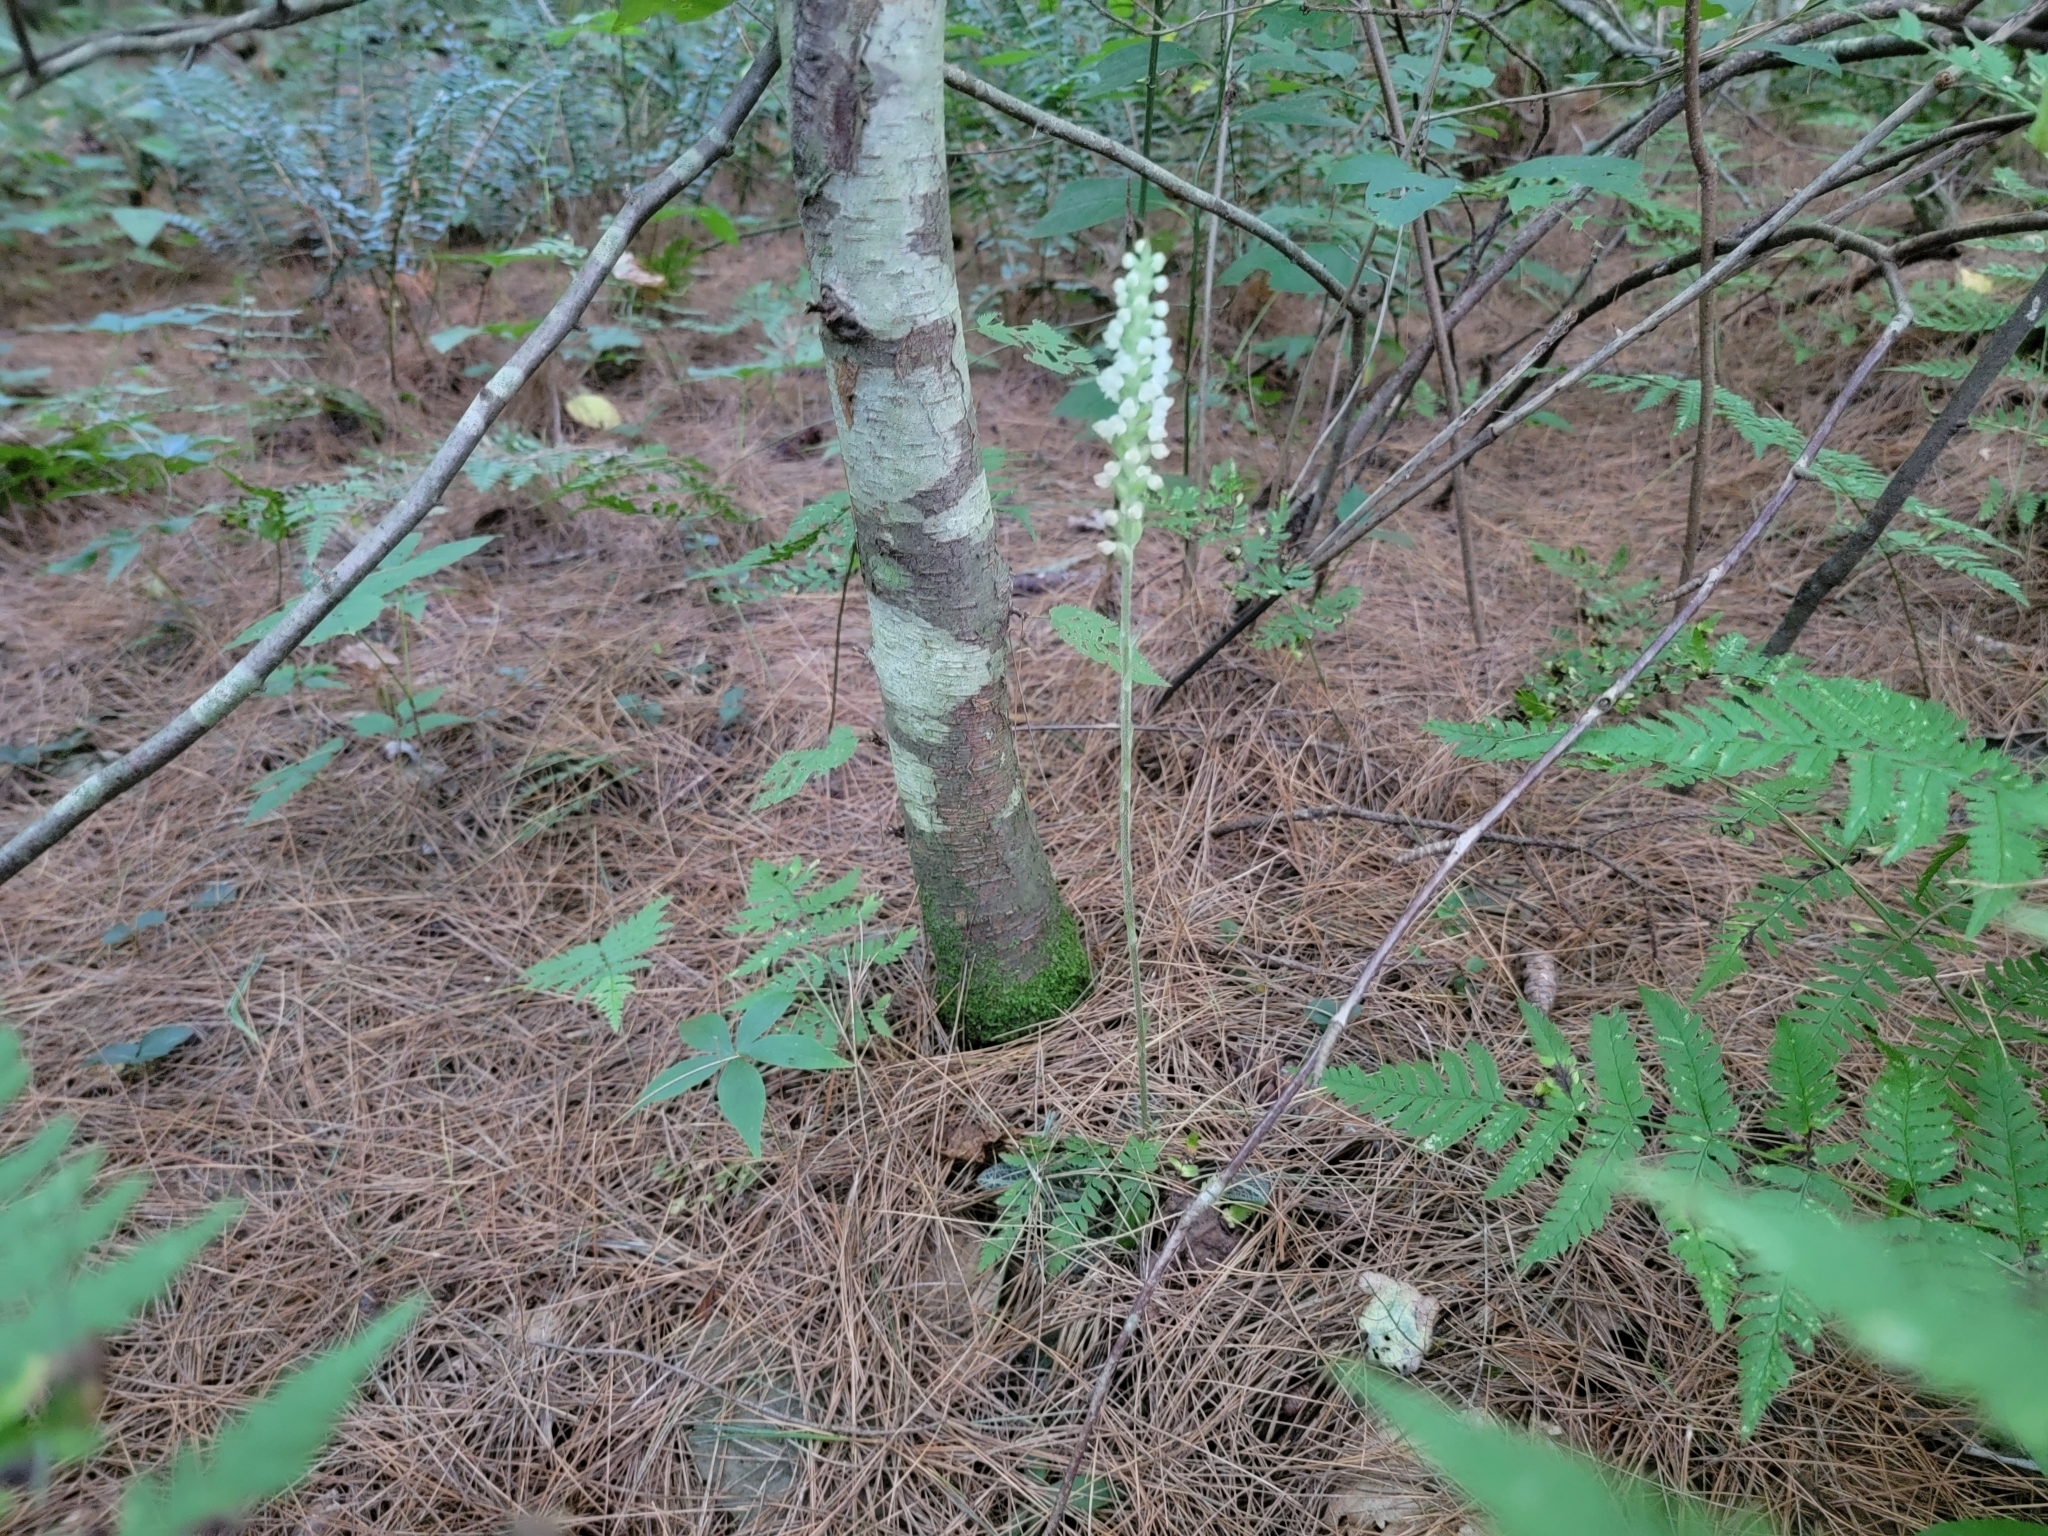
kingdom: Plantae
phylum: Tracheophyta
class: Liliopsida
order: Asparagales
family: Orchidaceae
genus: Goodyera
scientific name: Goodyera pubescens
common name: Downy rattlesnake-plantain
